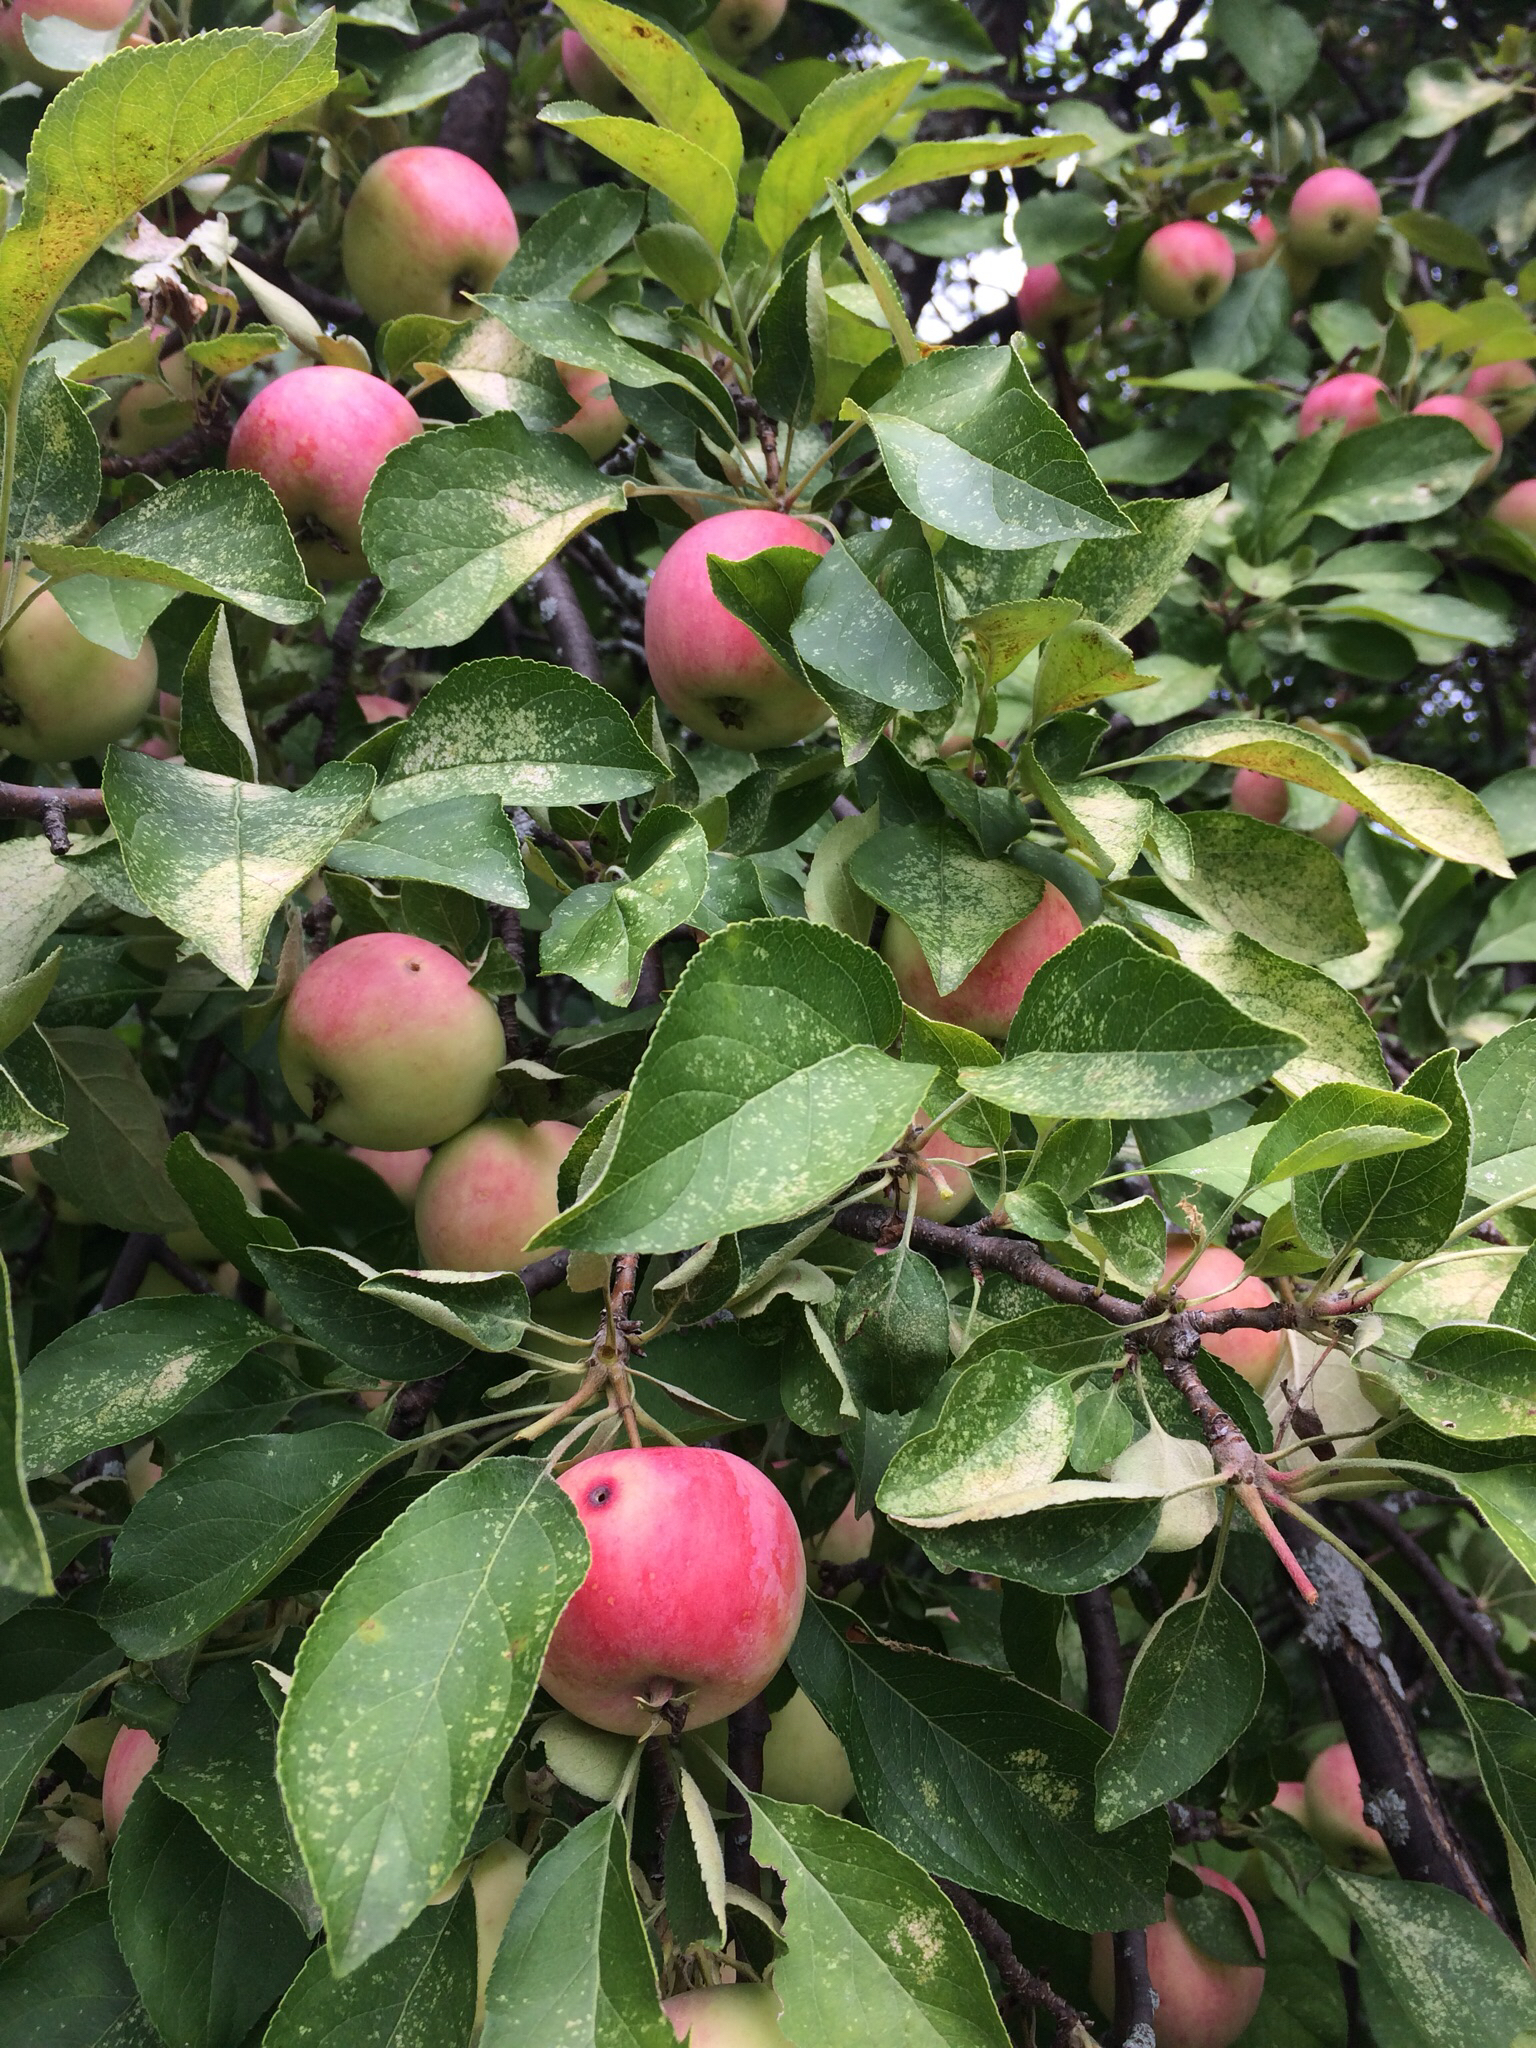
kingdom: Plantae
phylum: Tracheophyta
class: Magnoliopsida
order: Rosales
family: Rosaceae
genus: Malus
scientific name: Malus domestica
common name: Apple
